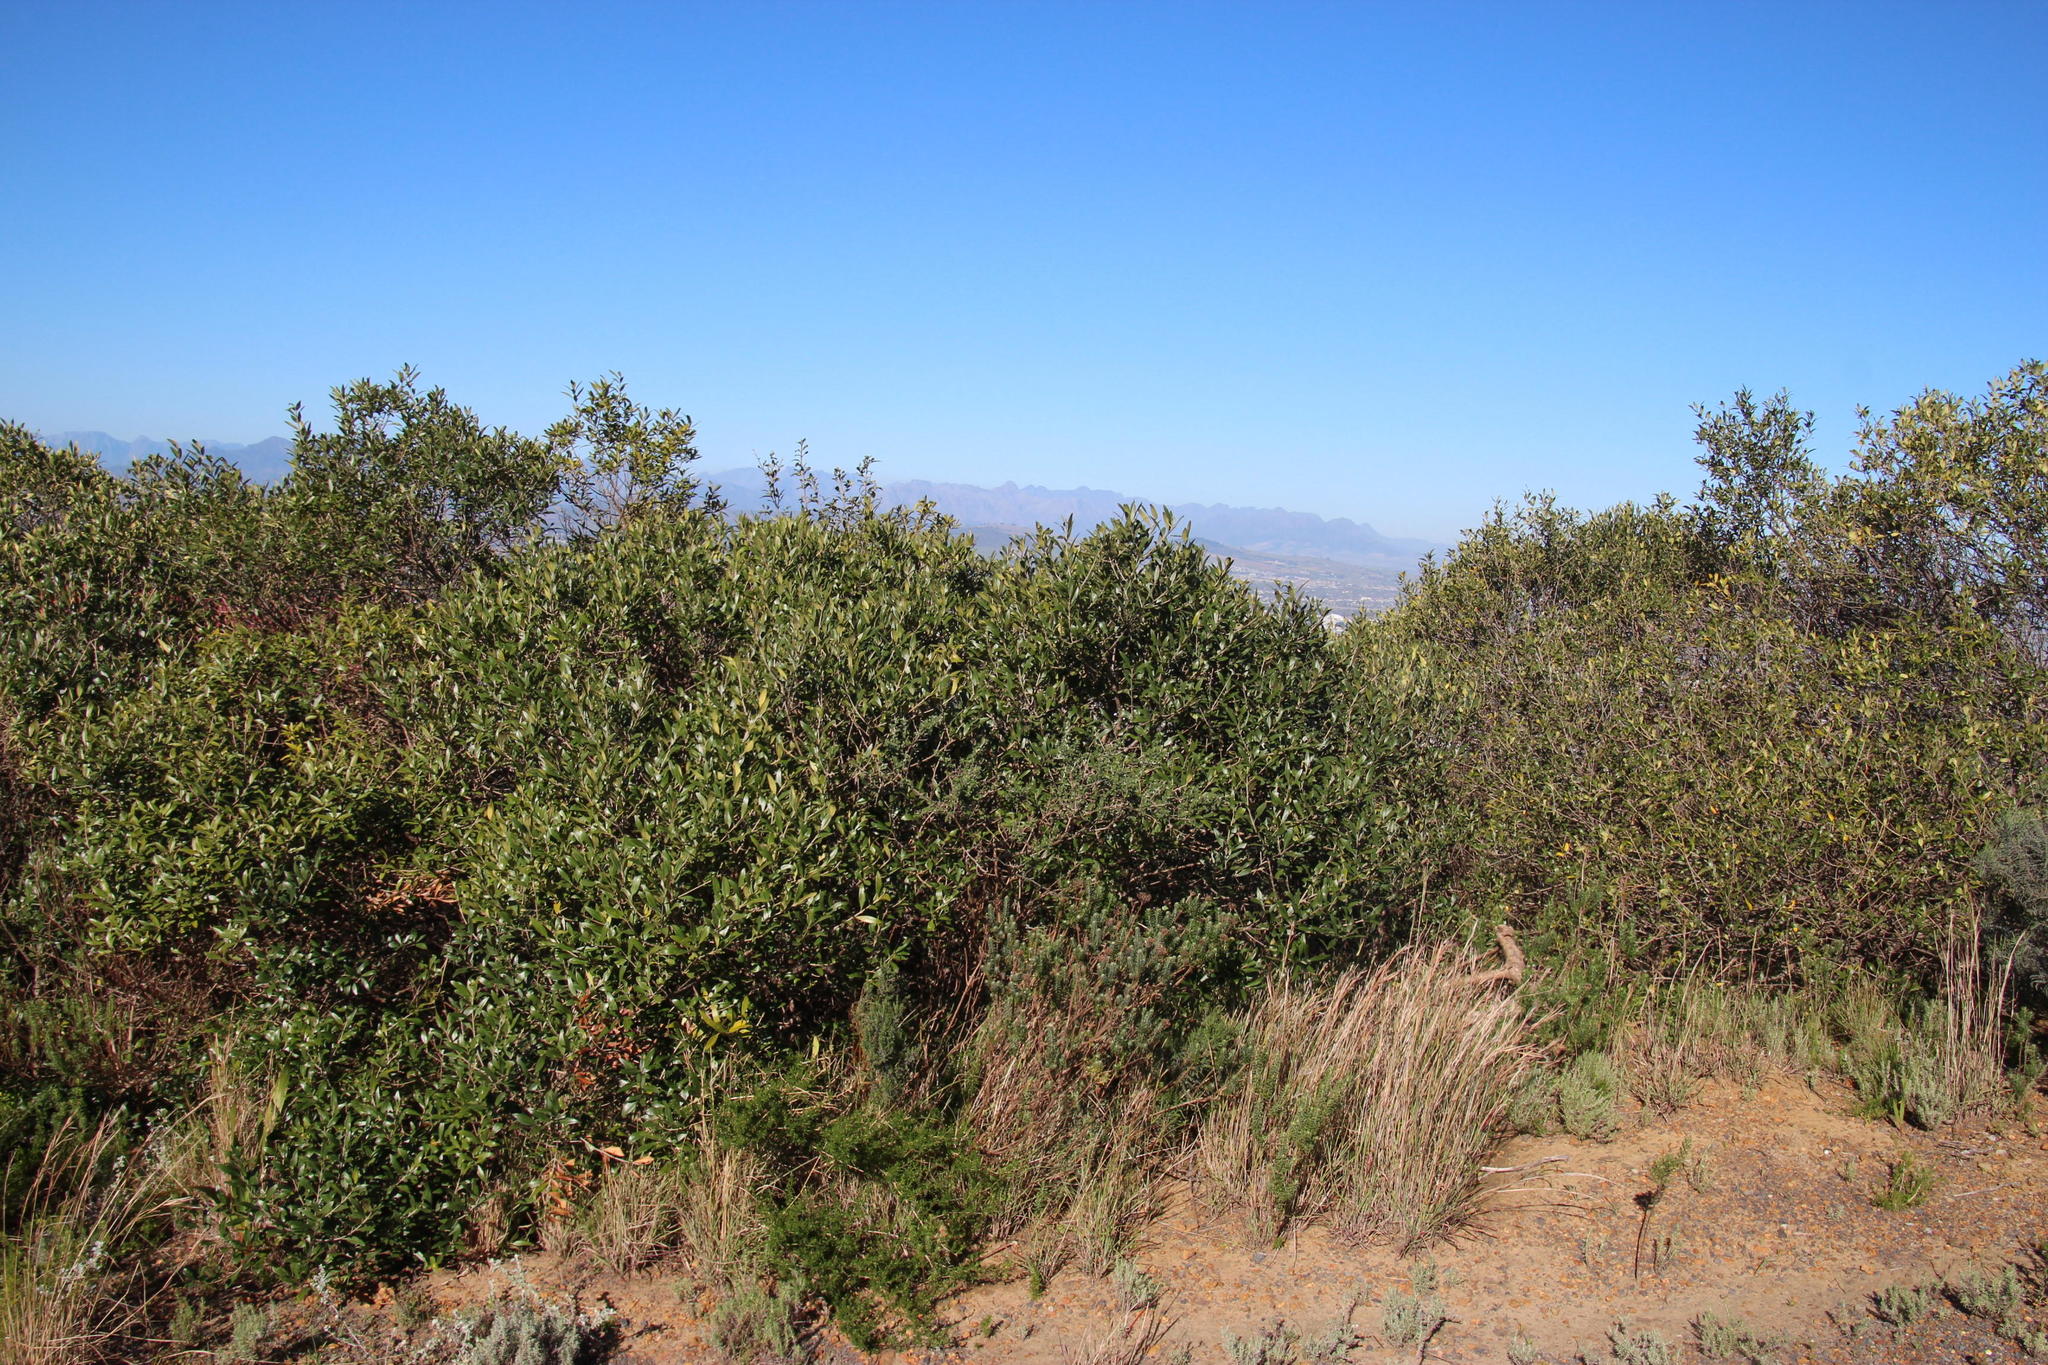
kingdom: Plantae
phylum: Tracheophyta
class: Magnoliopsida
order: Lamiales
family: Oleaceae
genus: Olea
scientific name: Olea europaea
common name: Olive
